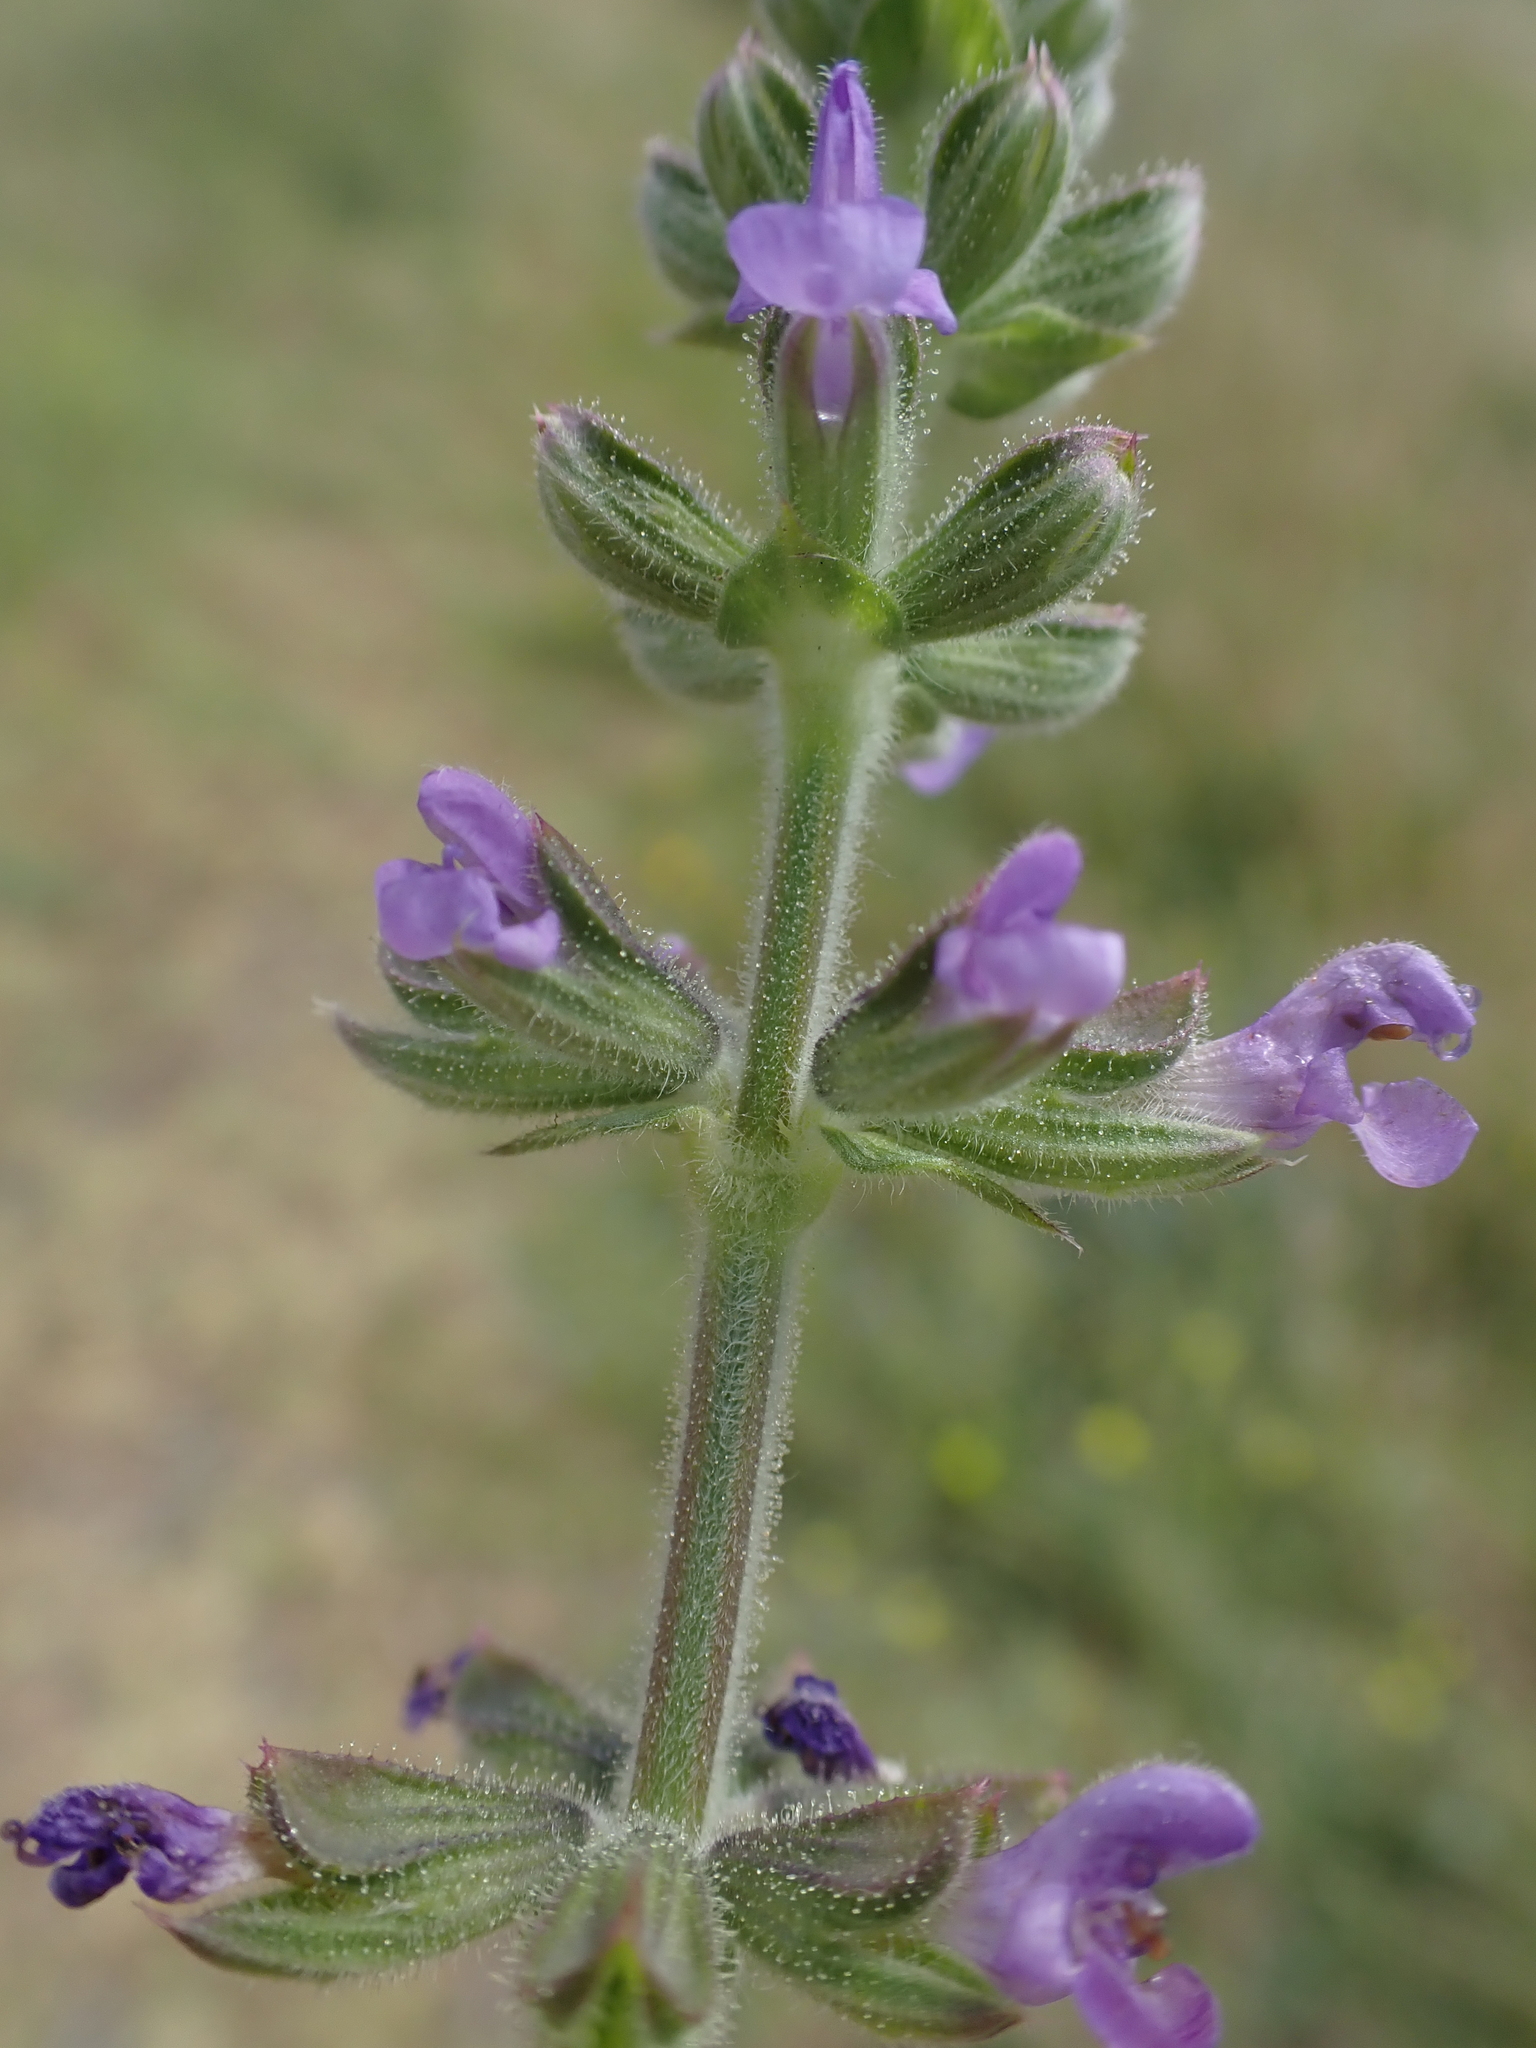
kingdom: Plantae
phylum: Tracheophyta
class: Magnoliopsida
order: Lamiales
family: Lamiaceae
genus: Salvia
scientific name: Salvia verbenaca
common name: Wild clary
